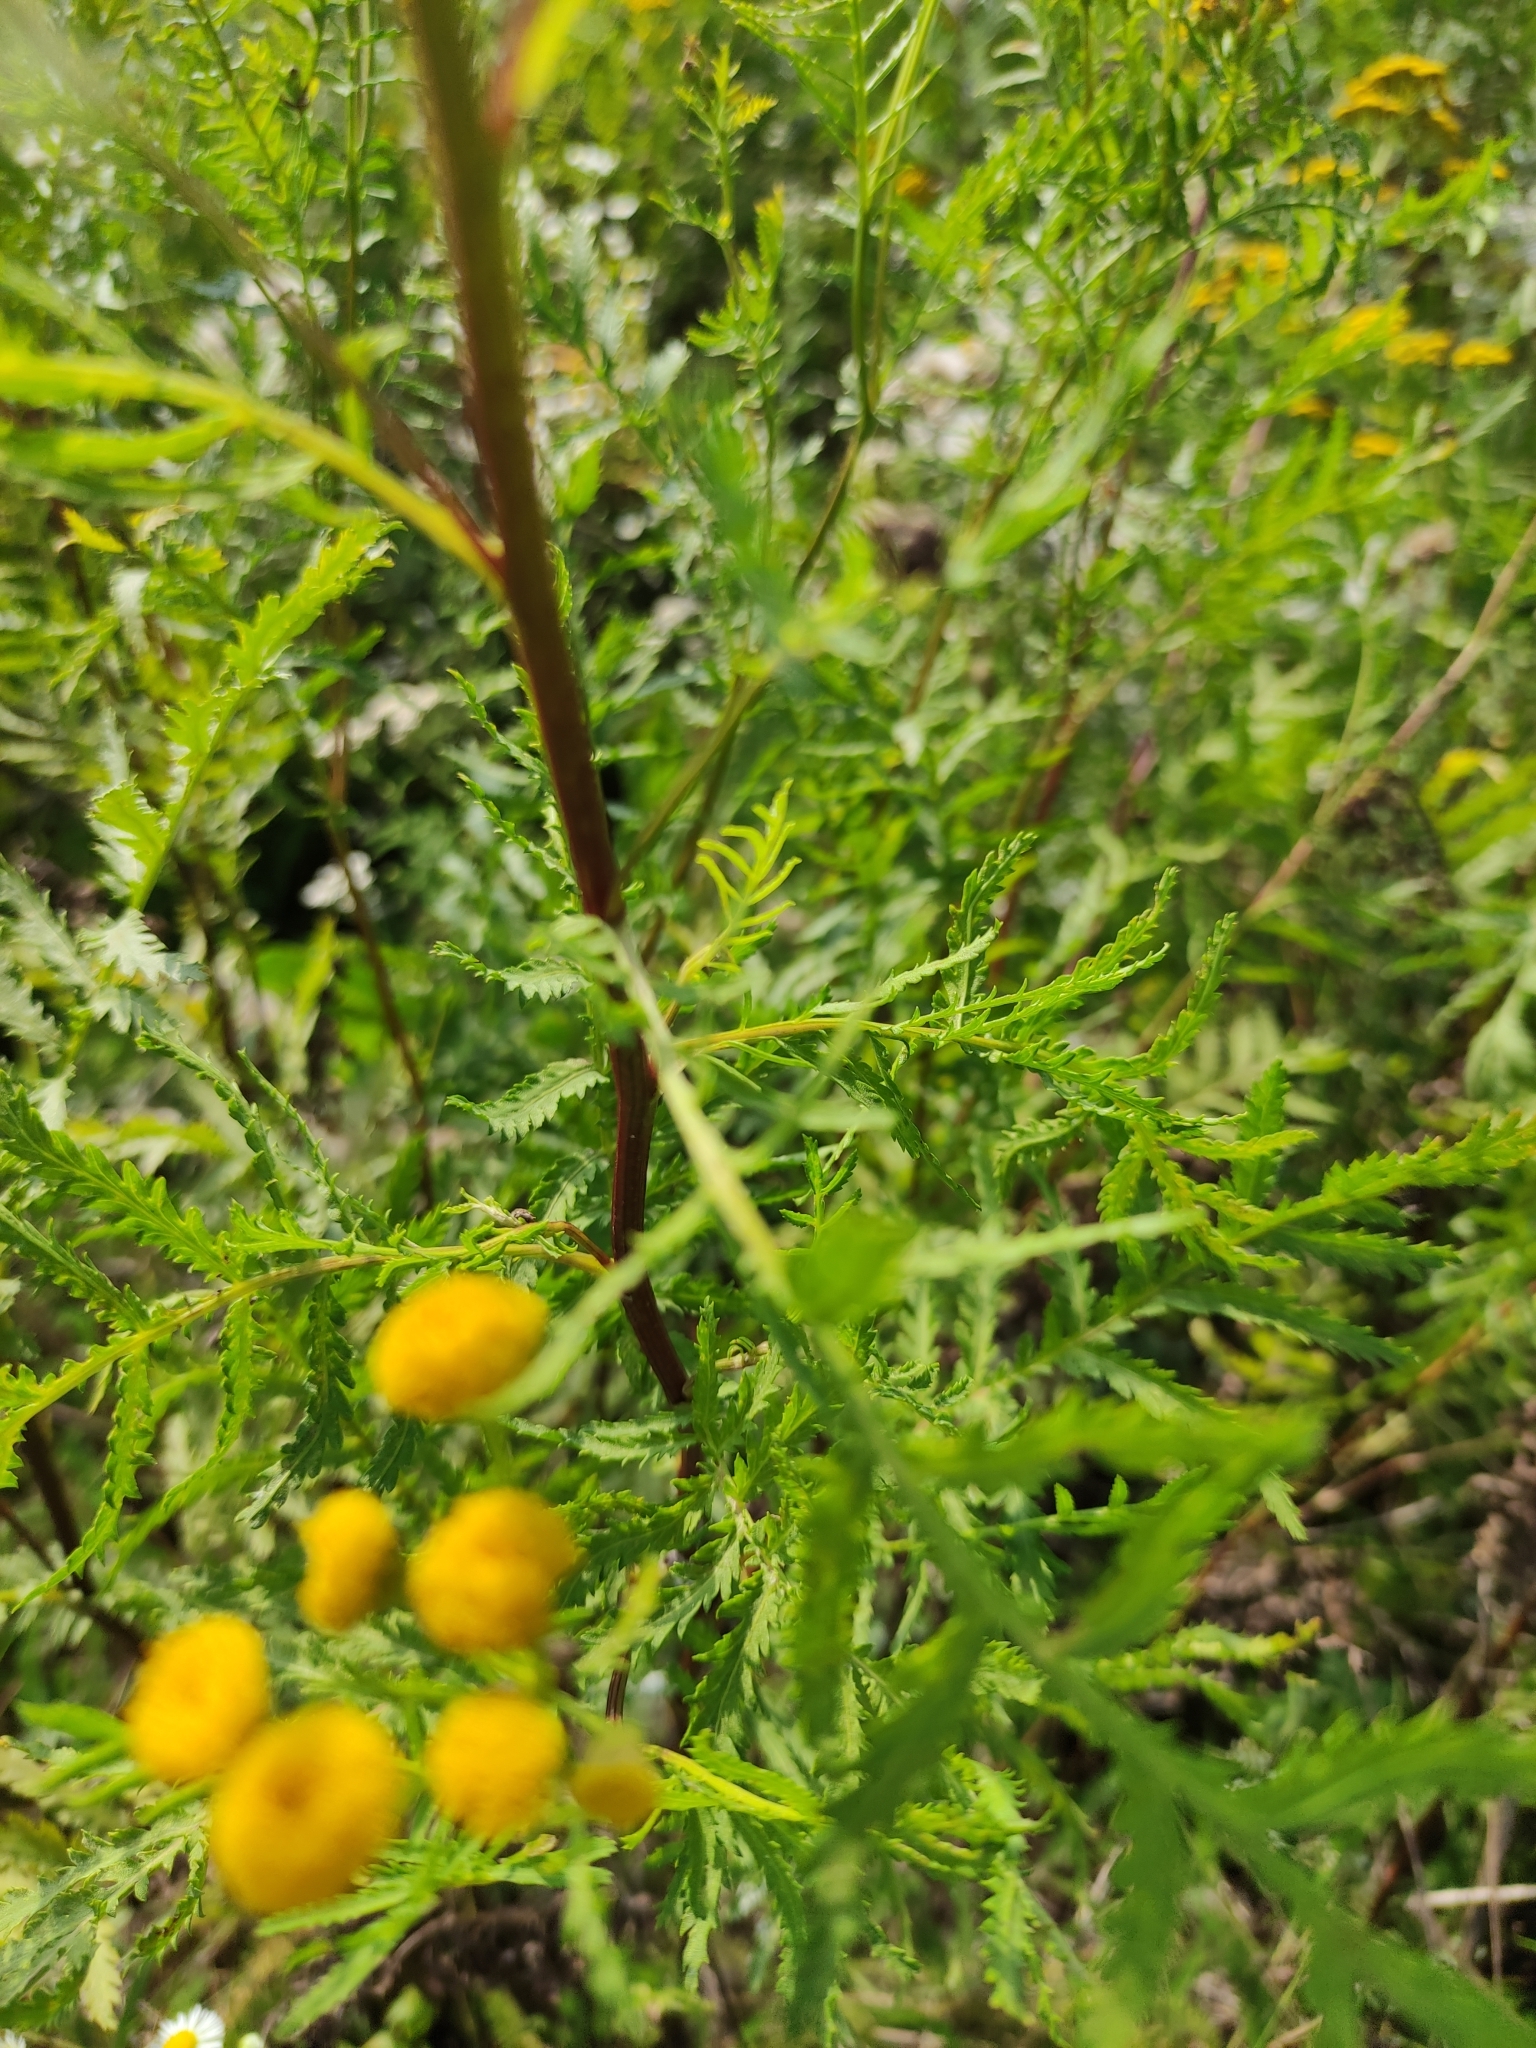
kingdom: Plantae
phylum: Tracheophyta
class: Magnoliopsida
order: Asterales
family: Asteraceae
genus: Tanacetum
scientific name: Tanacetum vulgare
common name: Common tansy
